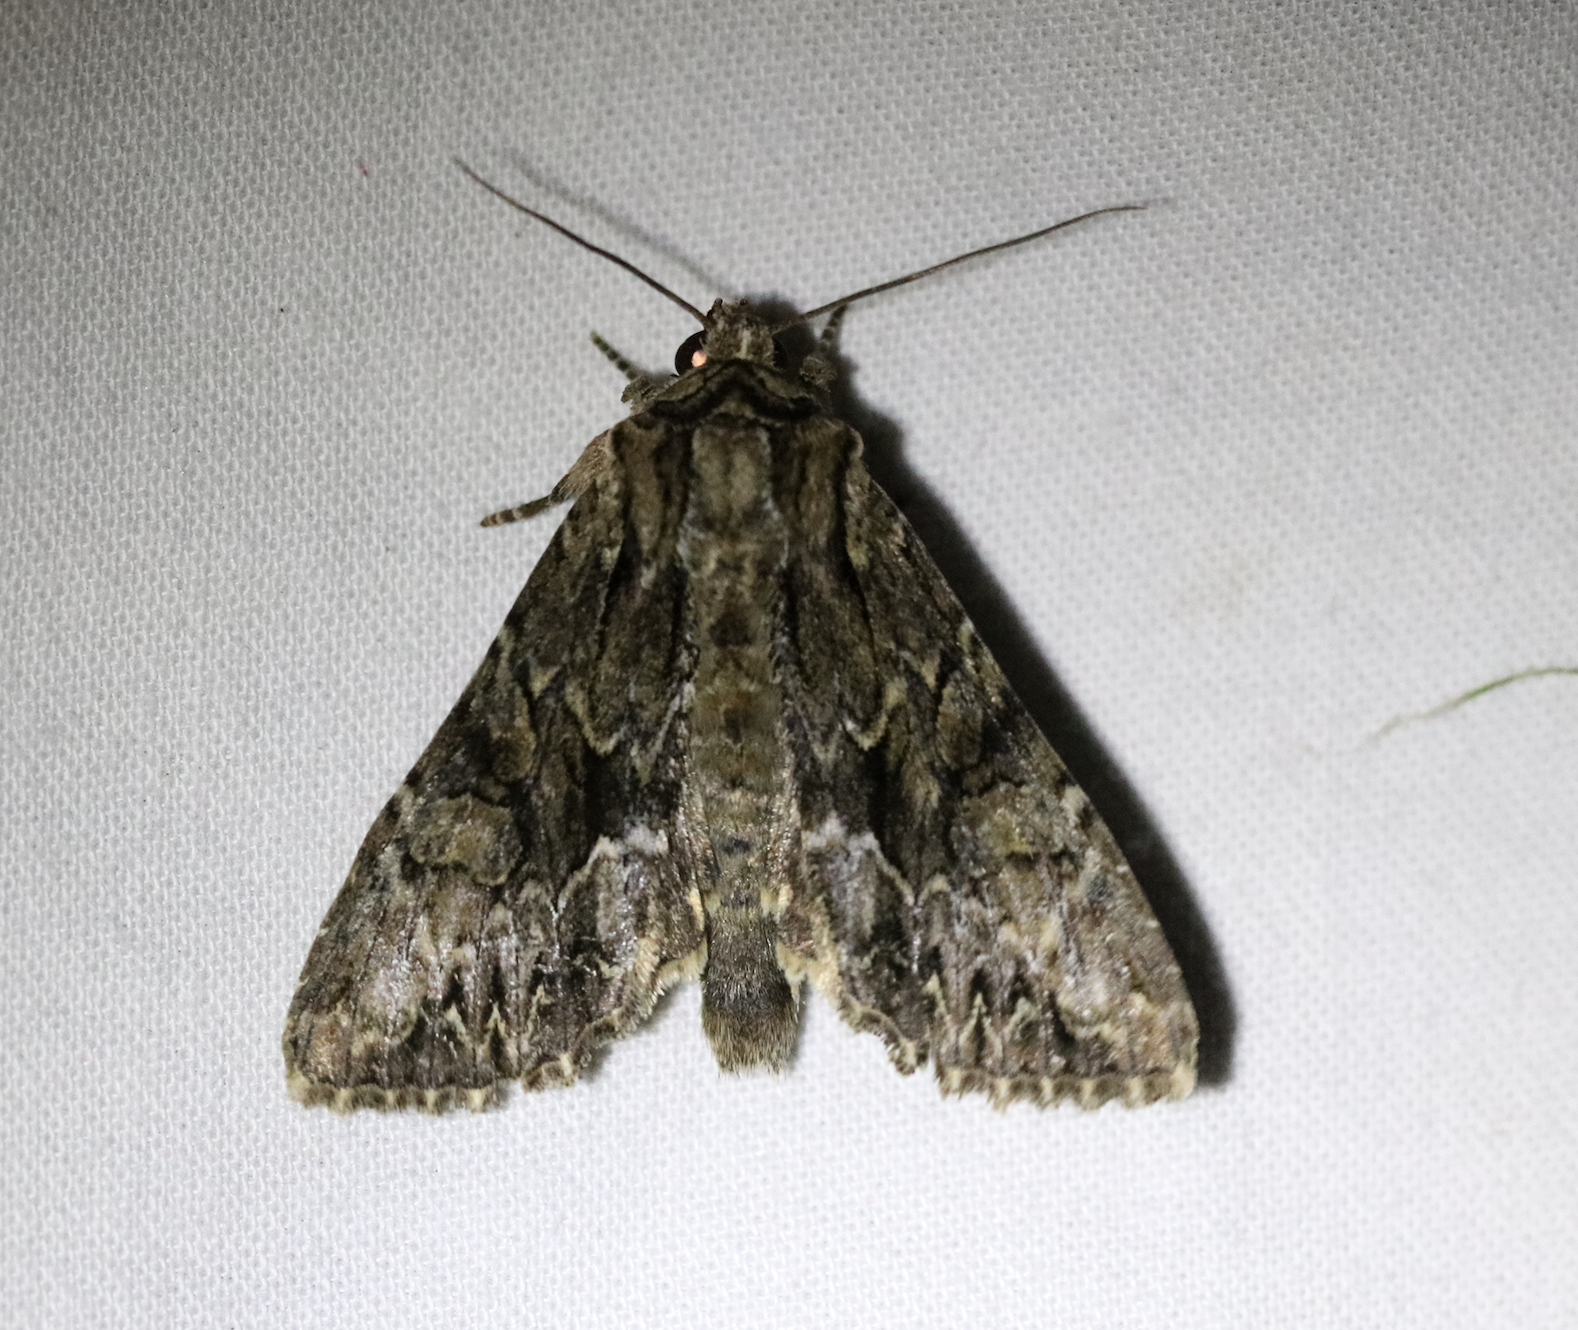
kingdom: Animalia
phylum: Arthropoda
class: Insecta
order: Lepidoptera
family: Noctuidae
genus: Apamea
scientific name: Apamea monoglypha
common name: Dark arches
